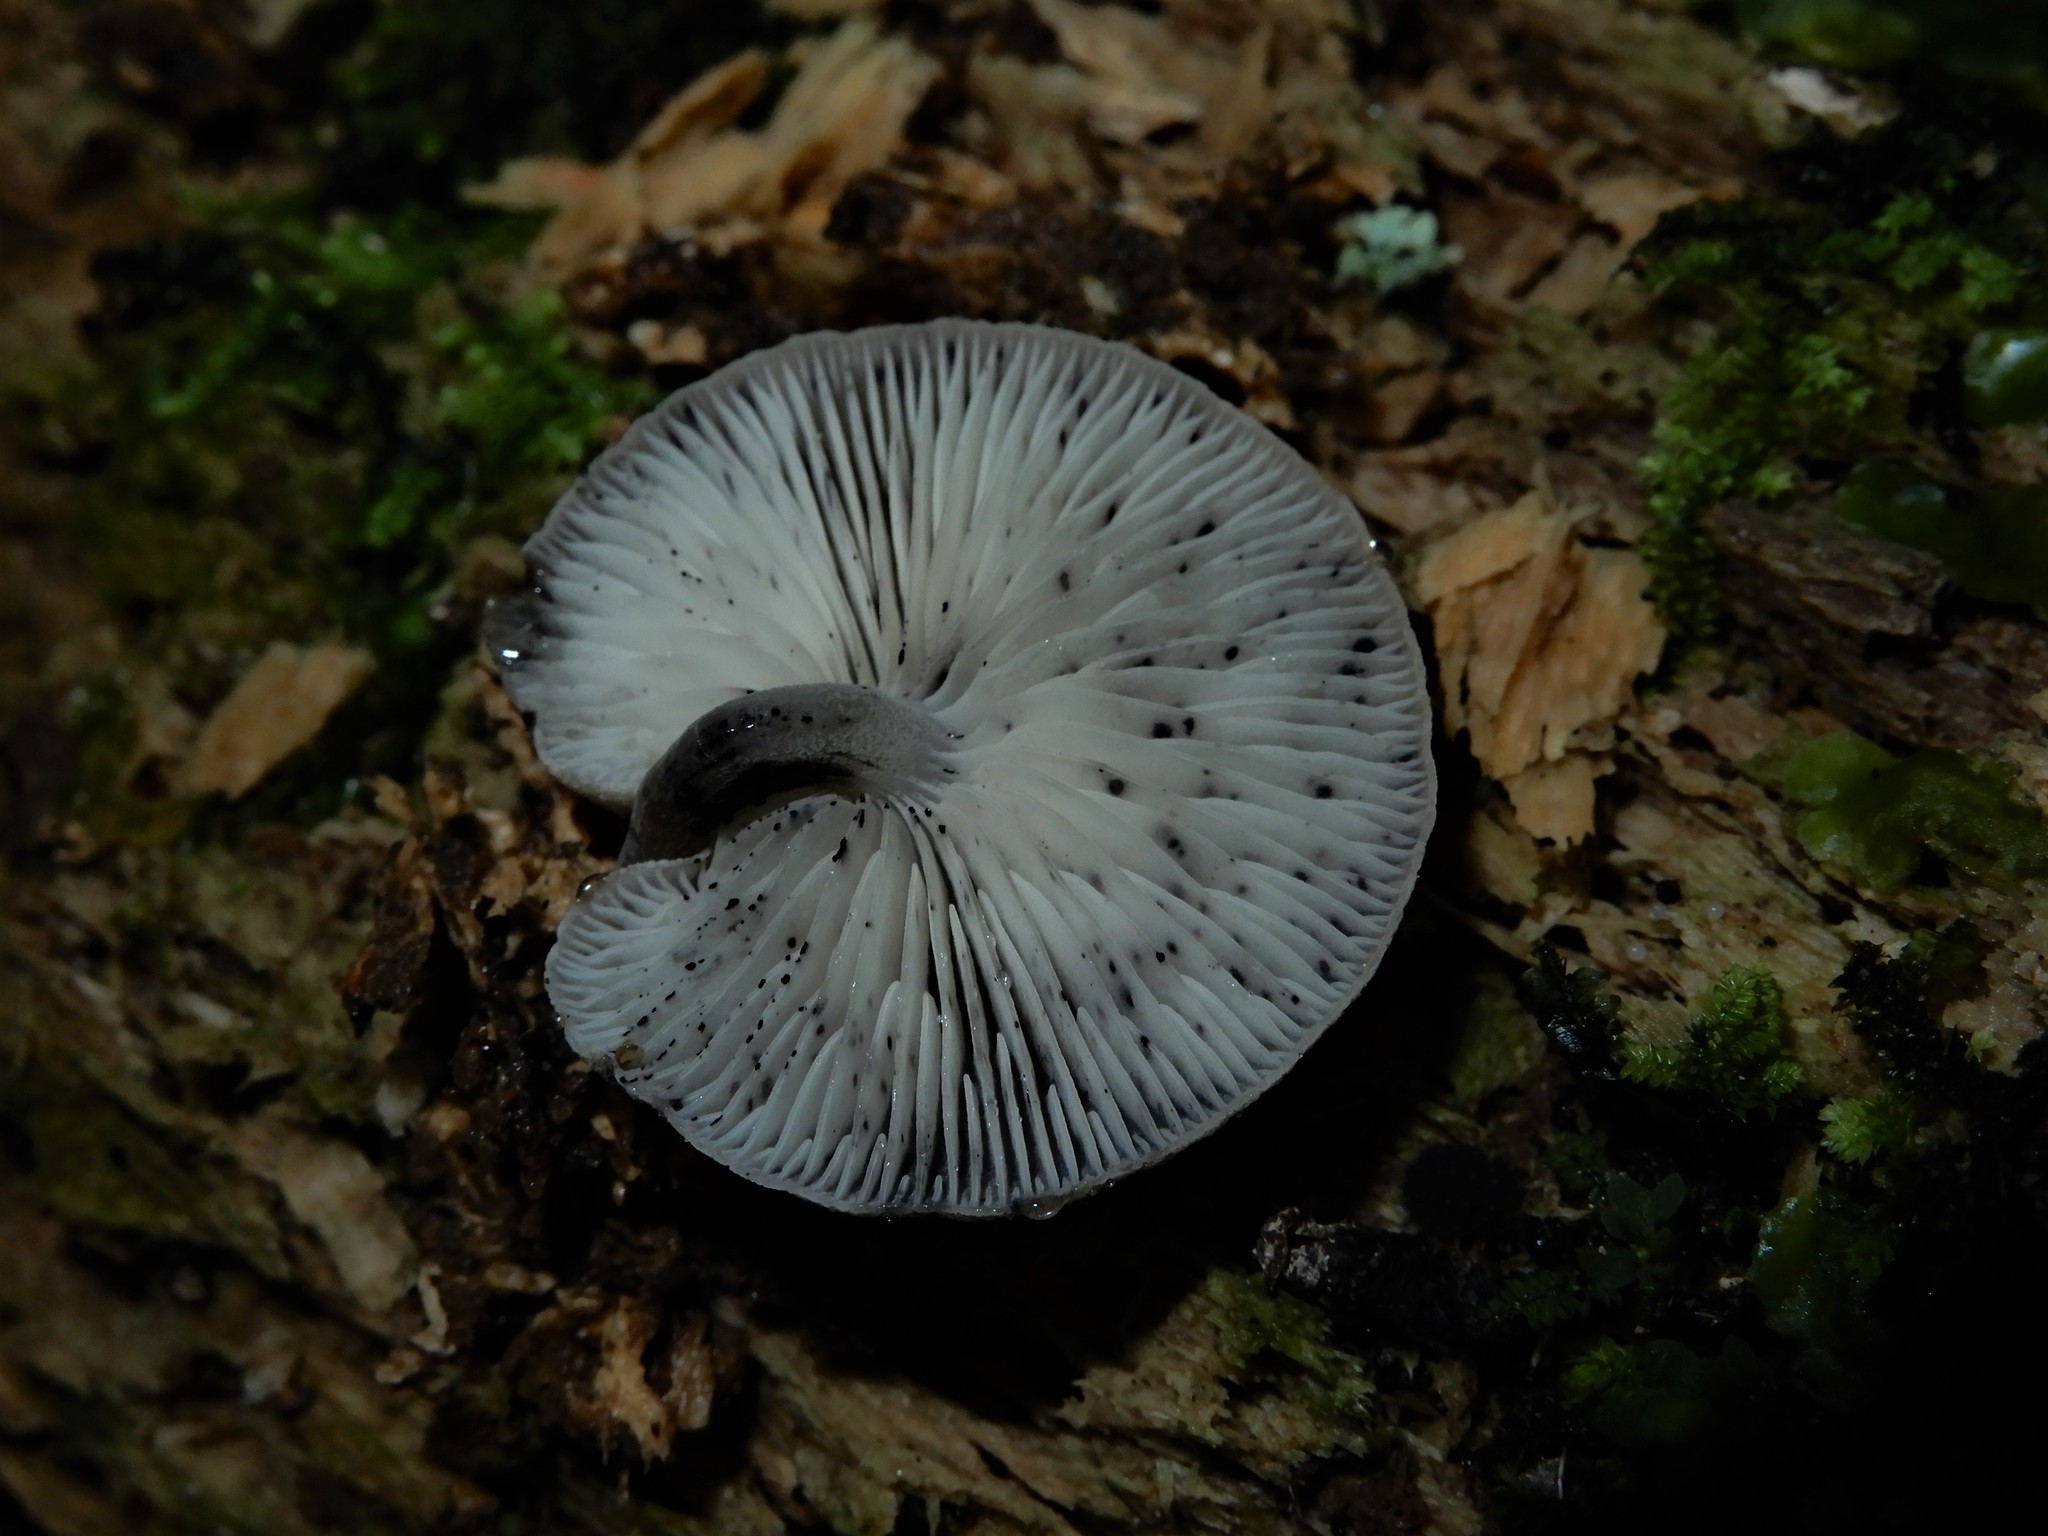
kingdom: Fungi
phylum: Basidiomycota
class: Agaricomycetes
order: Agaricales
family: Mycenaceae
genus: Hydropus
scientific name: Hydropus nigrita
